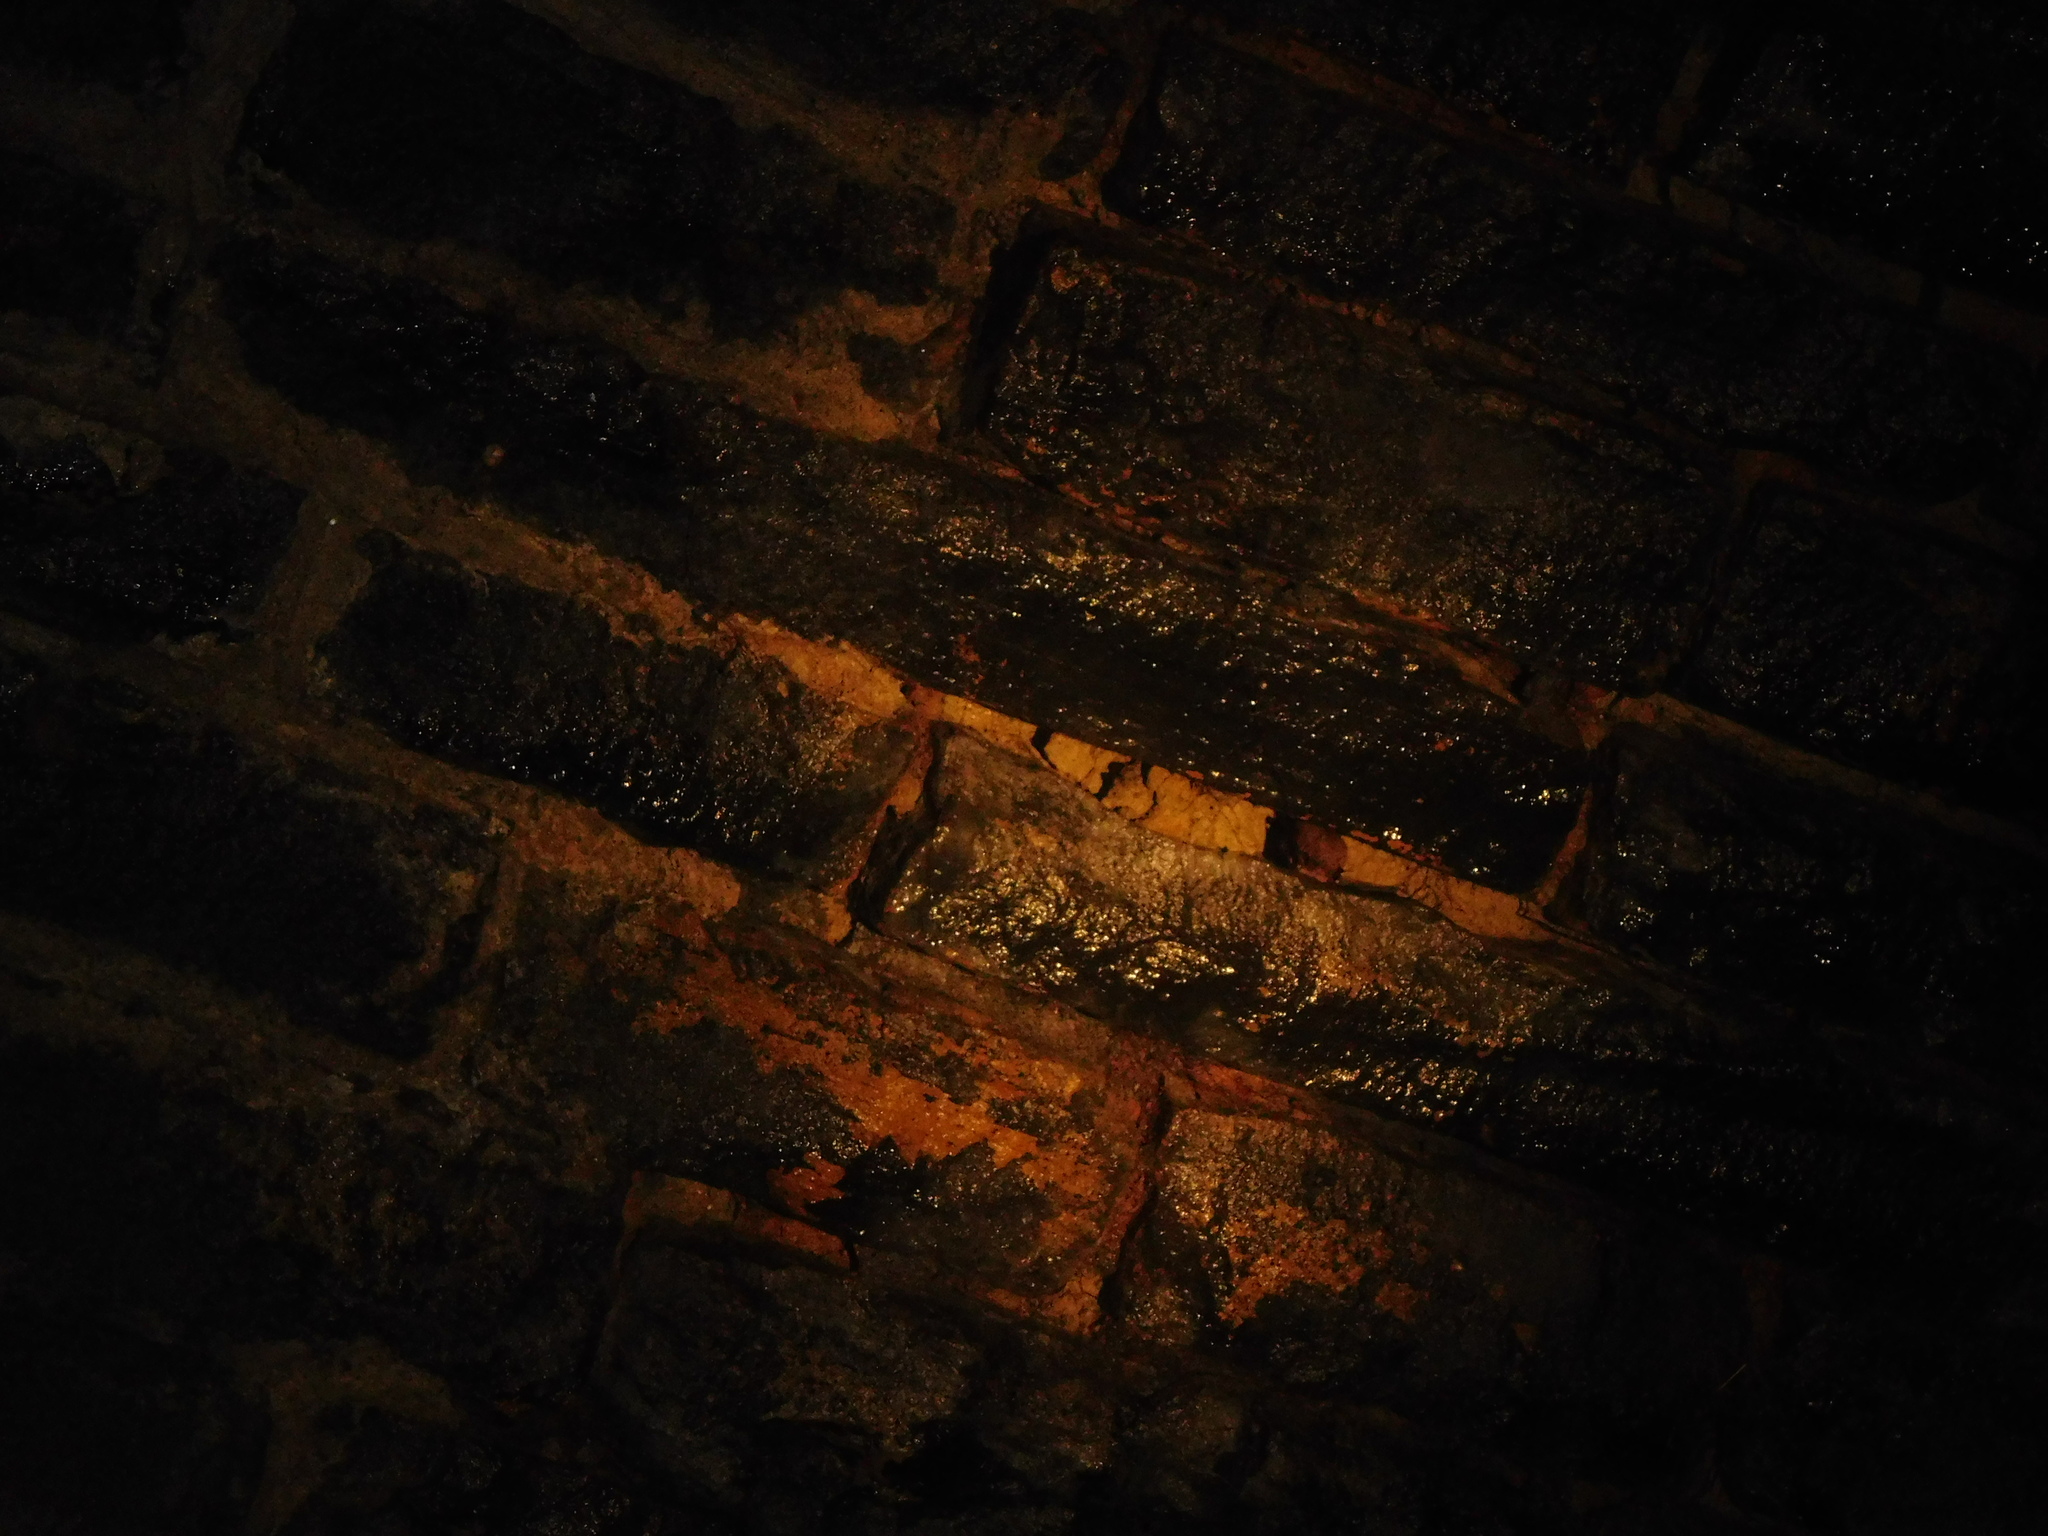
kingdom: Animalia
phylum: Chordata
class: Mammalia
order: Chiroptera
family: Vespertilionidae
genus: Myotis
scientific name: Myotis daubentonii
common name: Daubenton's myotis
